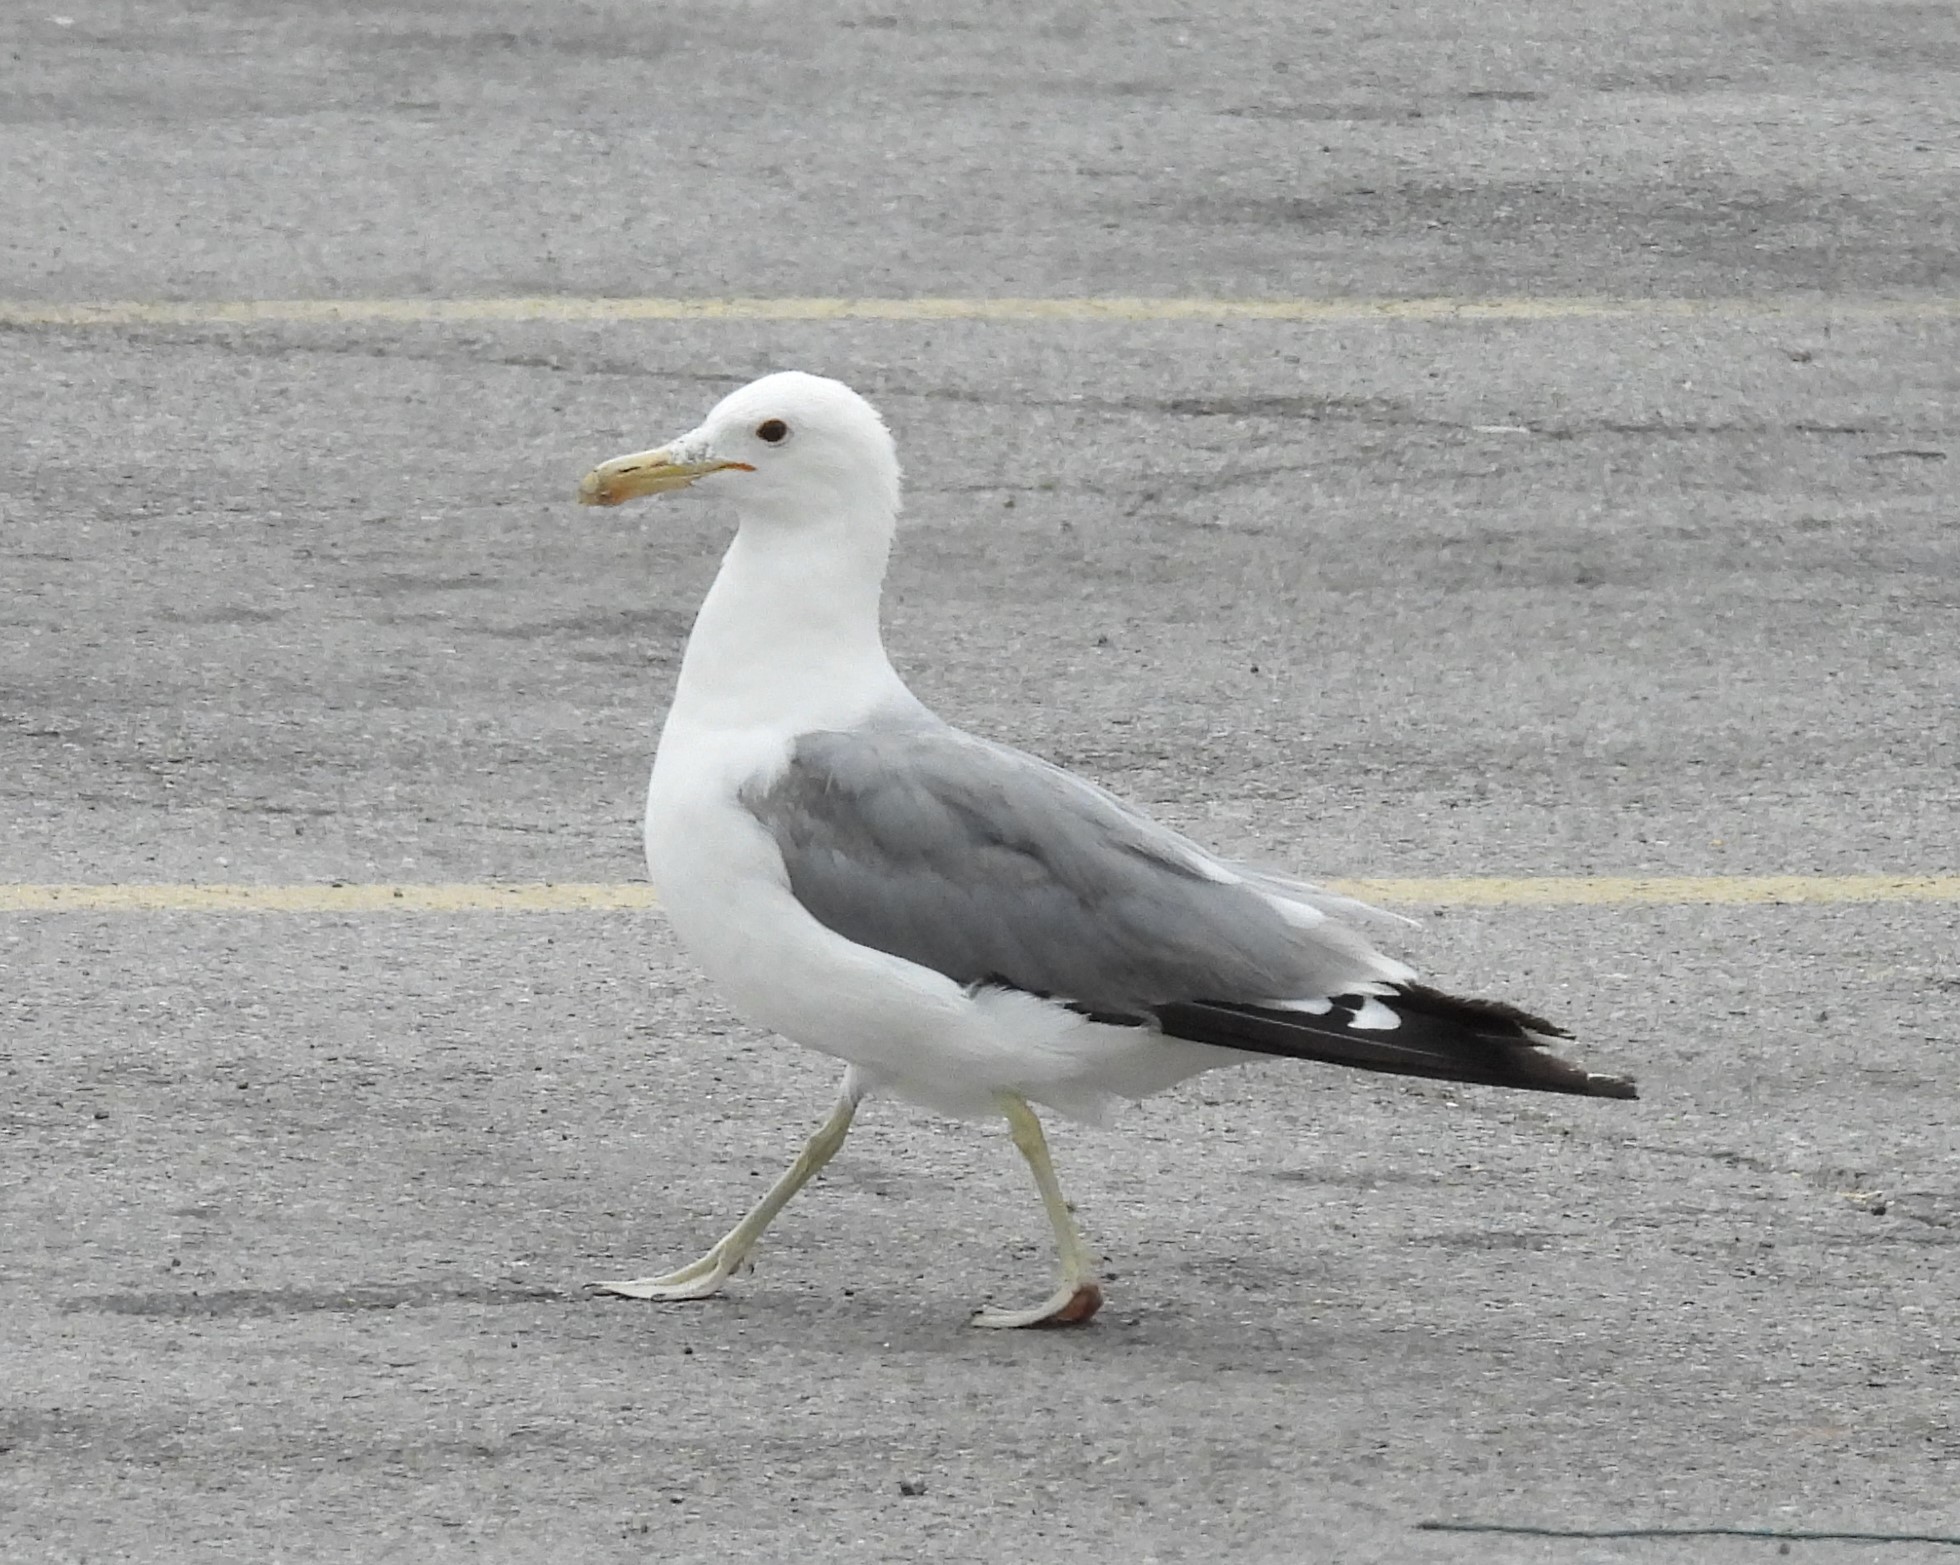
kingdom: Animalia
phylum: Chordata
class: Aves
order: Charadriiformes
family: Laridae
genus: Larus
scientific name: Larus californicus
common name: California gull
